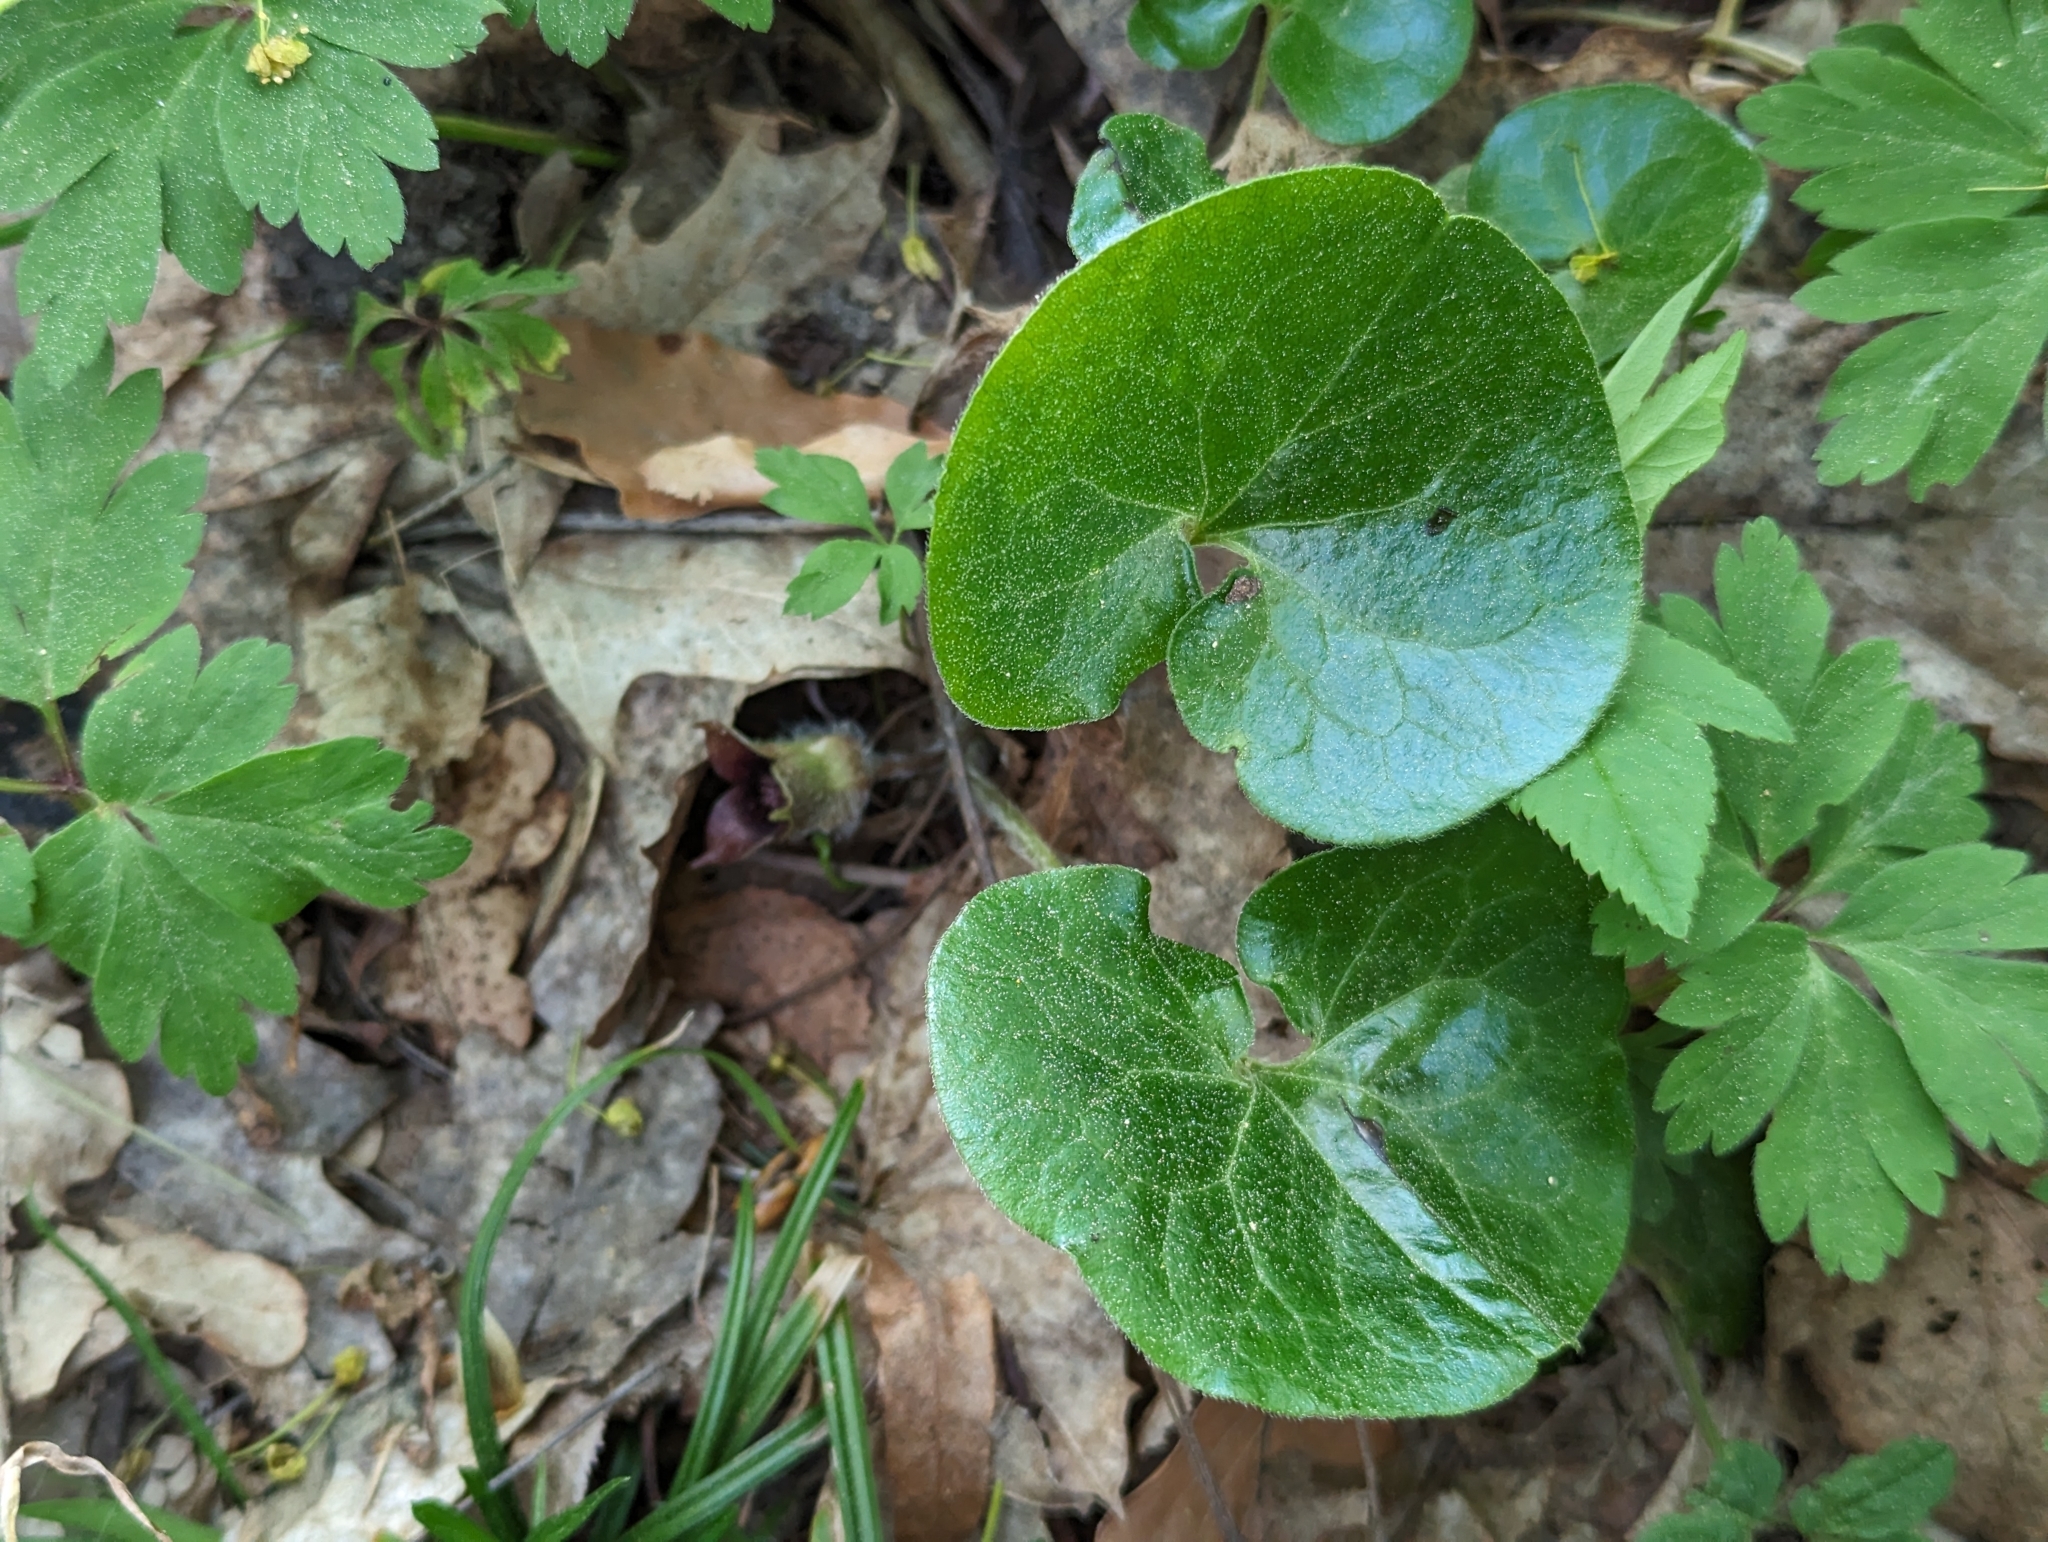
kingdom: Plantae
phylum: Tracheophyta
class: Magnoliopsida
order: Piperales
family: Aristolochiaceae
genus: Asarum
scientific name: Asarum europaeum
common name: Asarabacca
